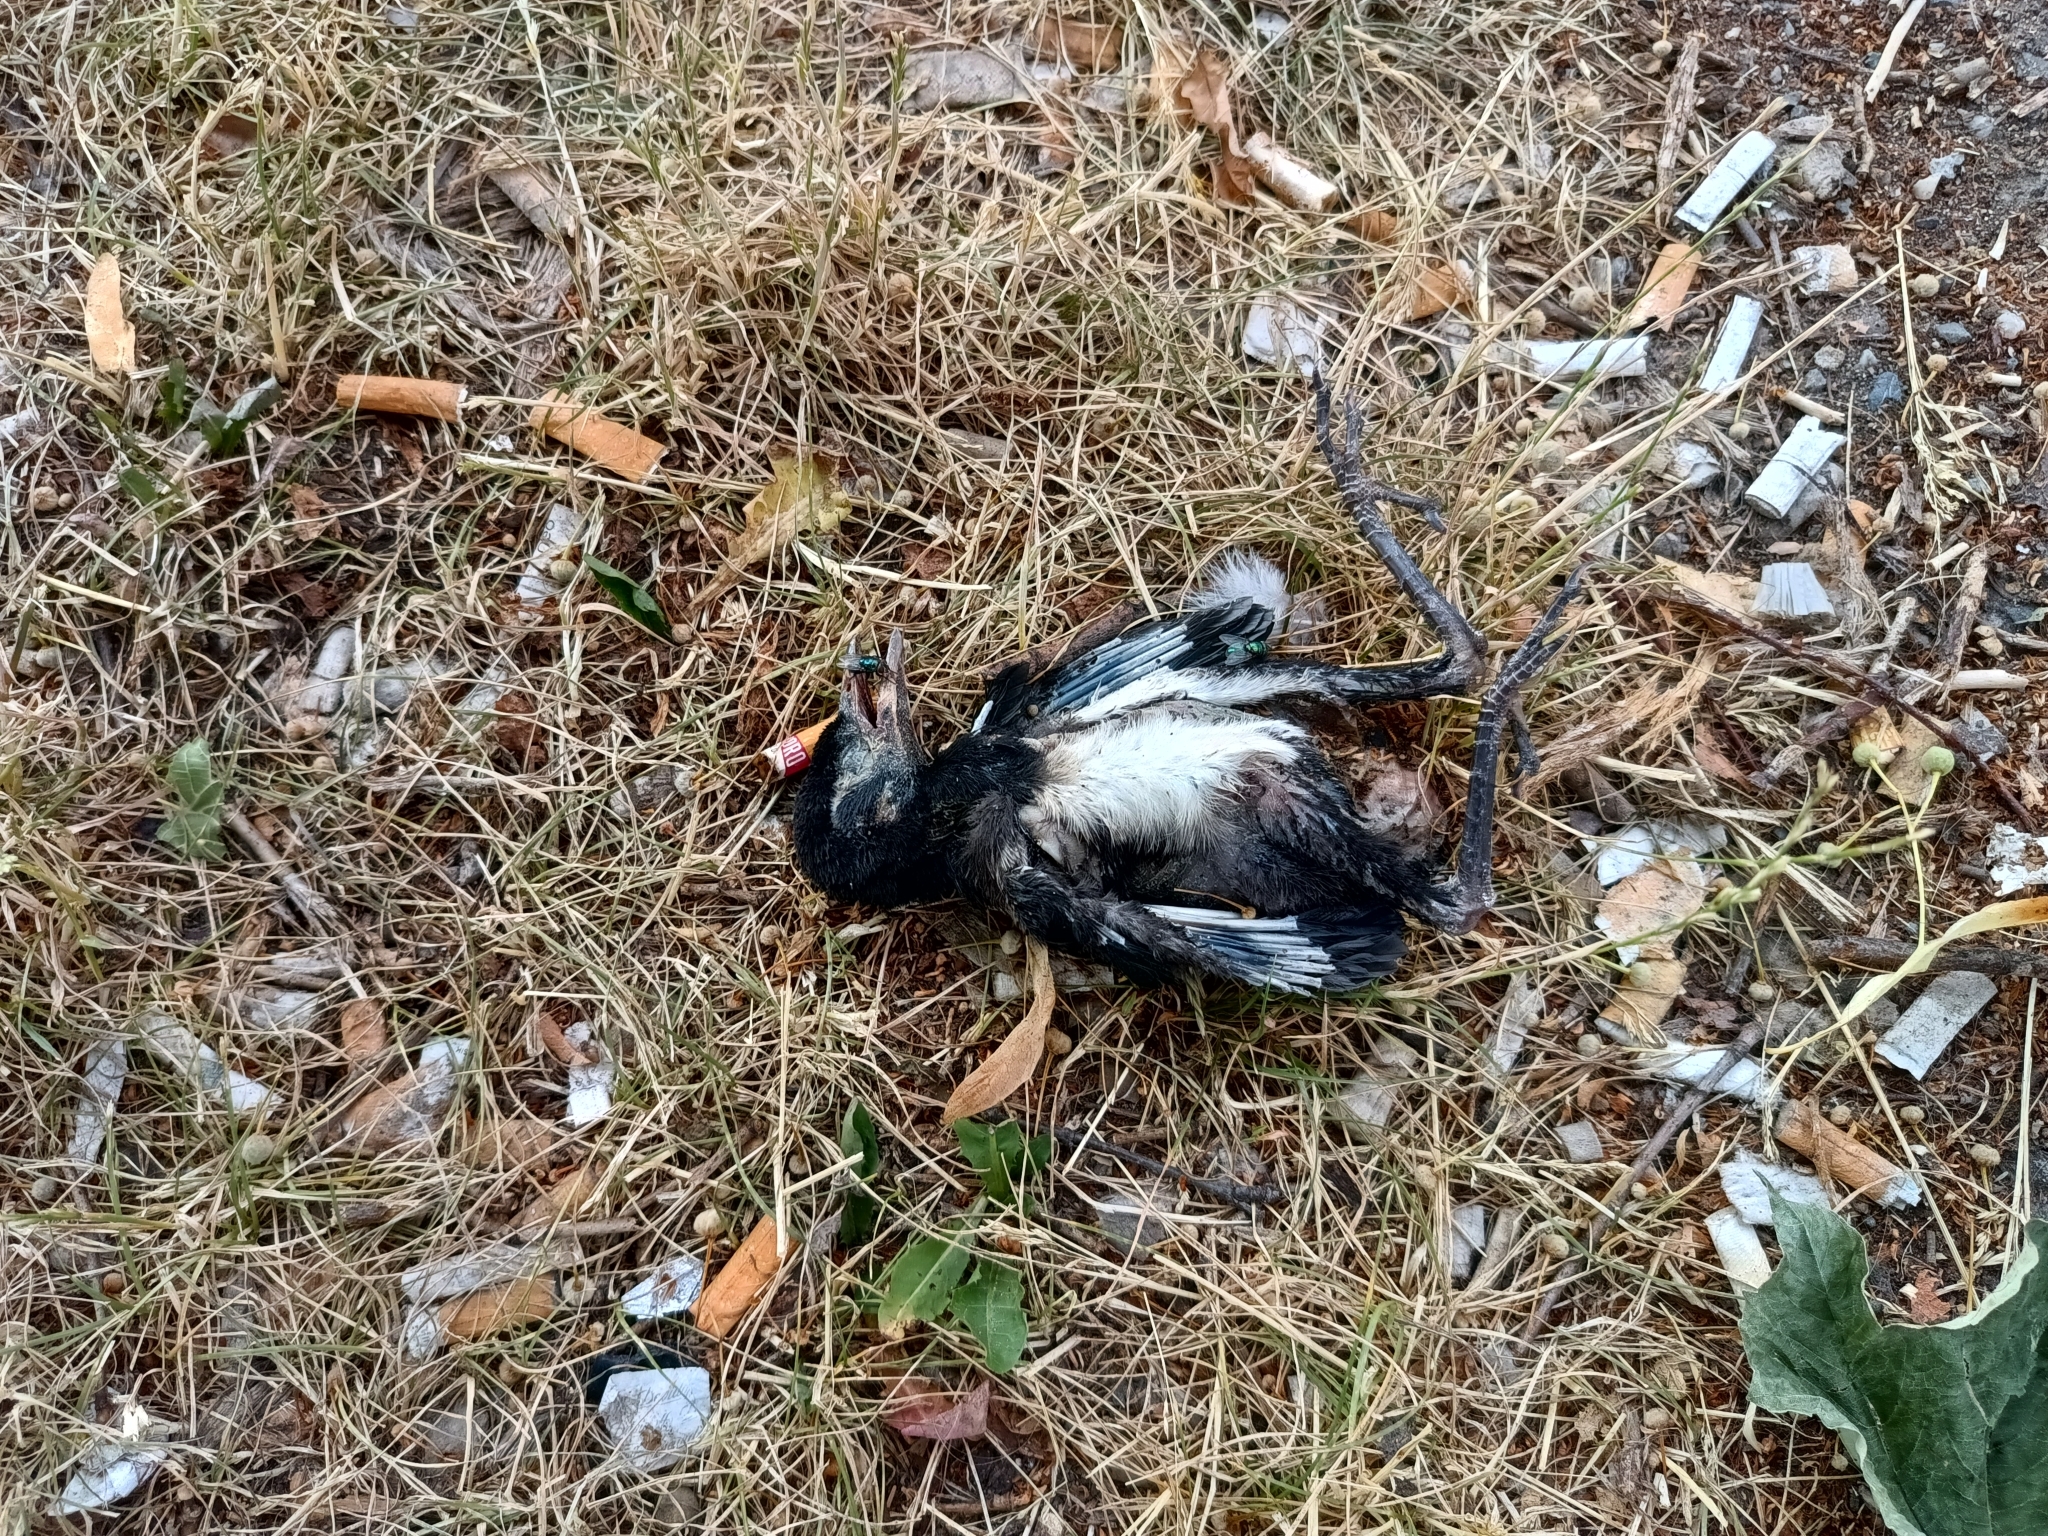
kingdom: Animalia
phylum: Chordata
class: Aves
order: Passeriformes
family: Corvidae
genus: Pica
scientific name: Pica pica
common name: Eurasian magpie
